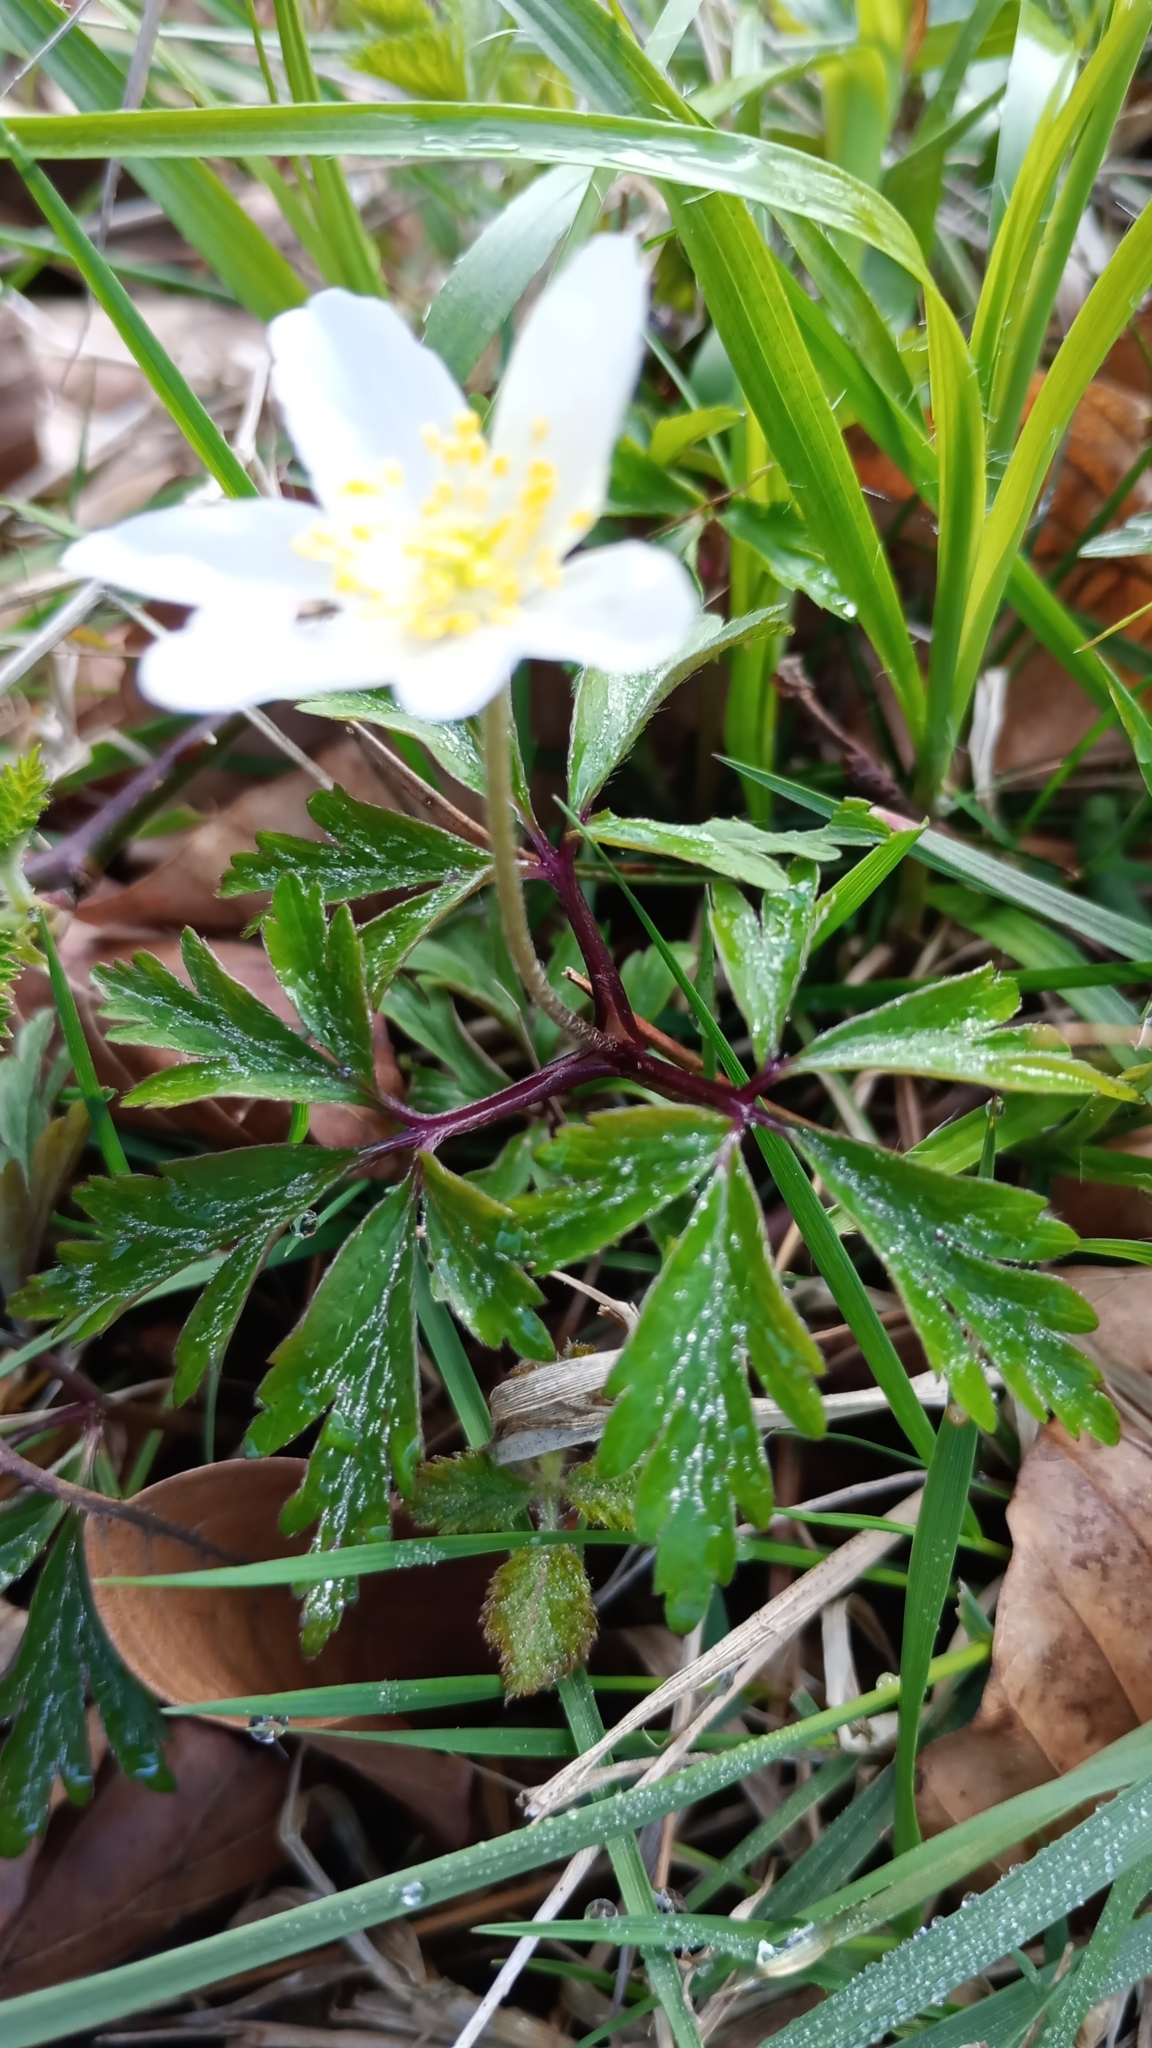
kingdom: Plantae
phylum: Tracheophyta
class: Magnoliopsida
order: Ranunculales
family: Ranunculaceae
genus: Anemone
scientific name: Anemone nemorosa
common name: Wood anemone
